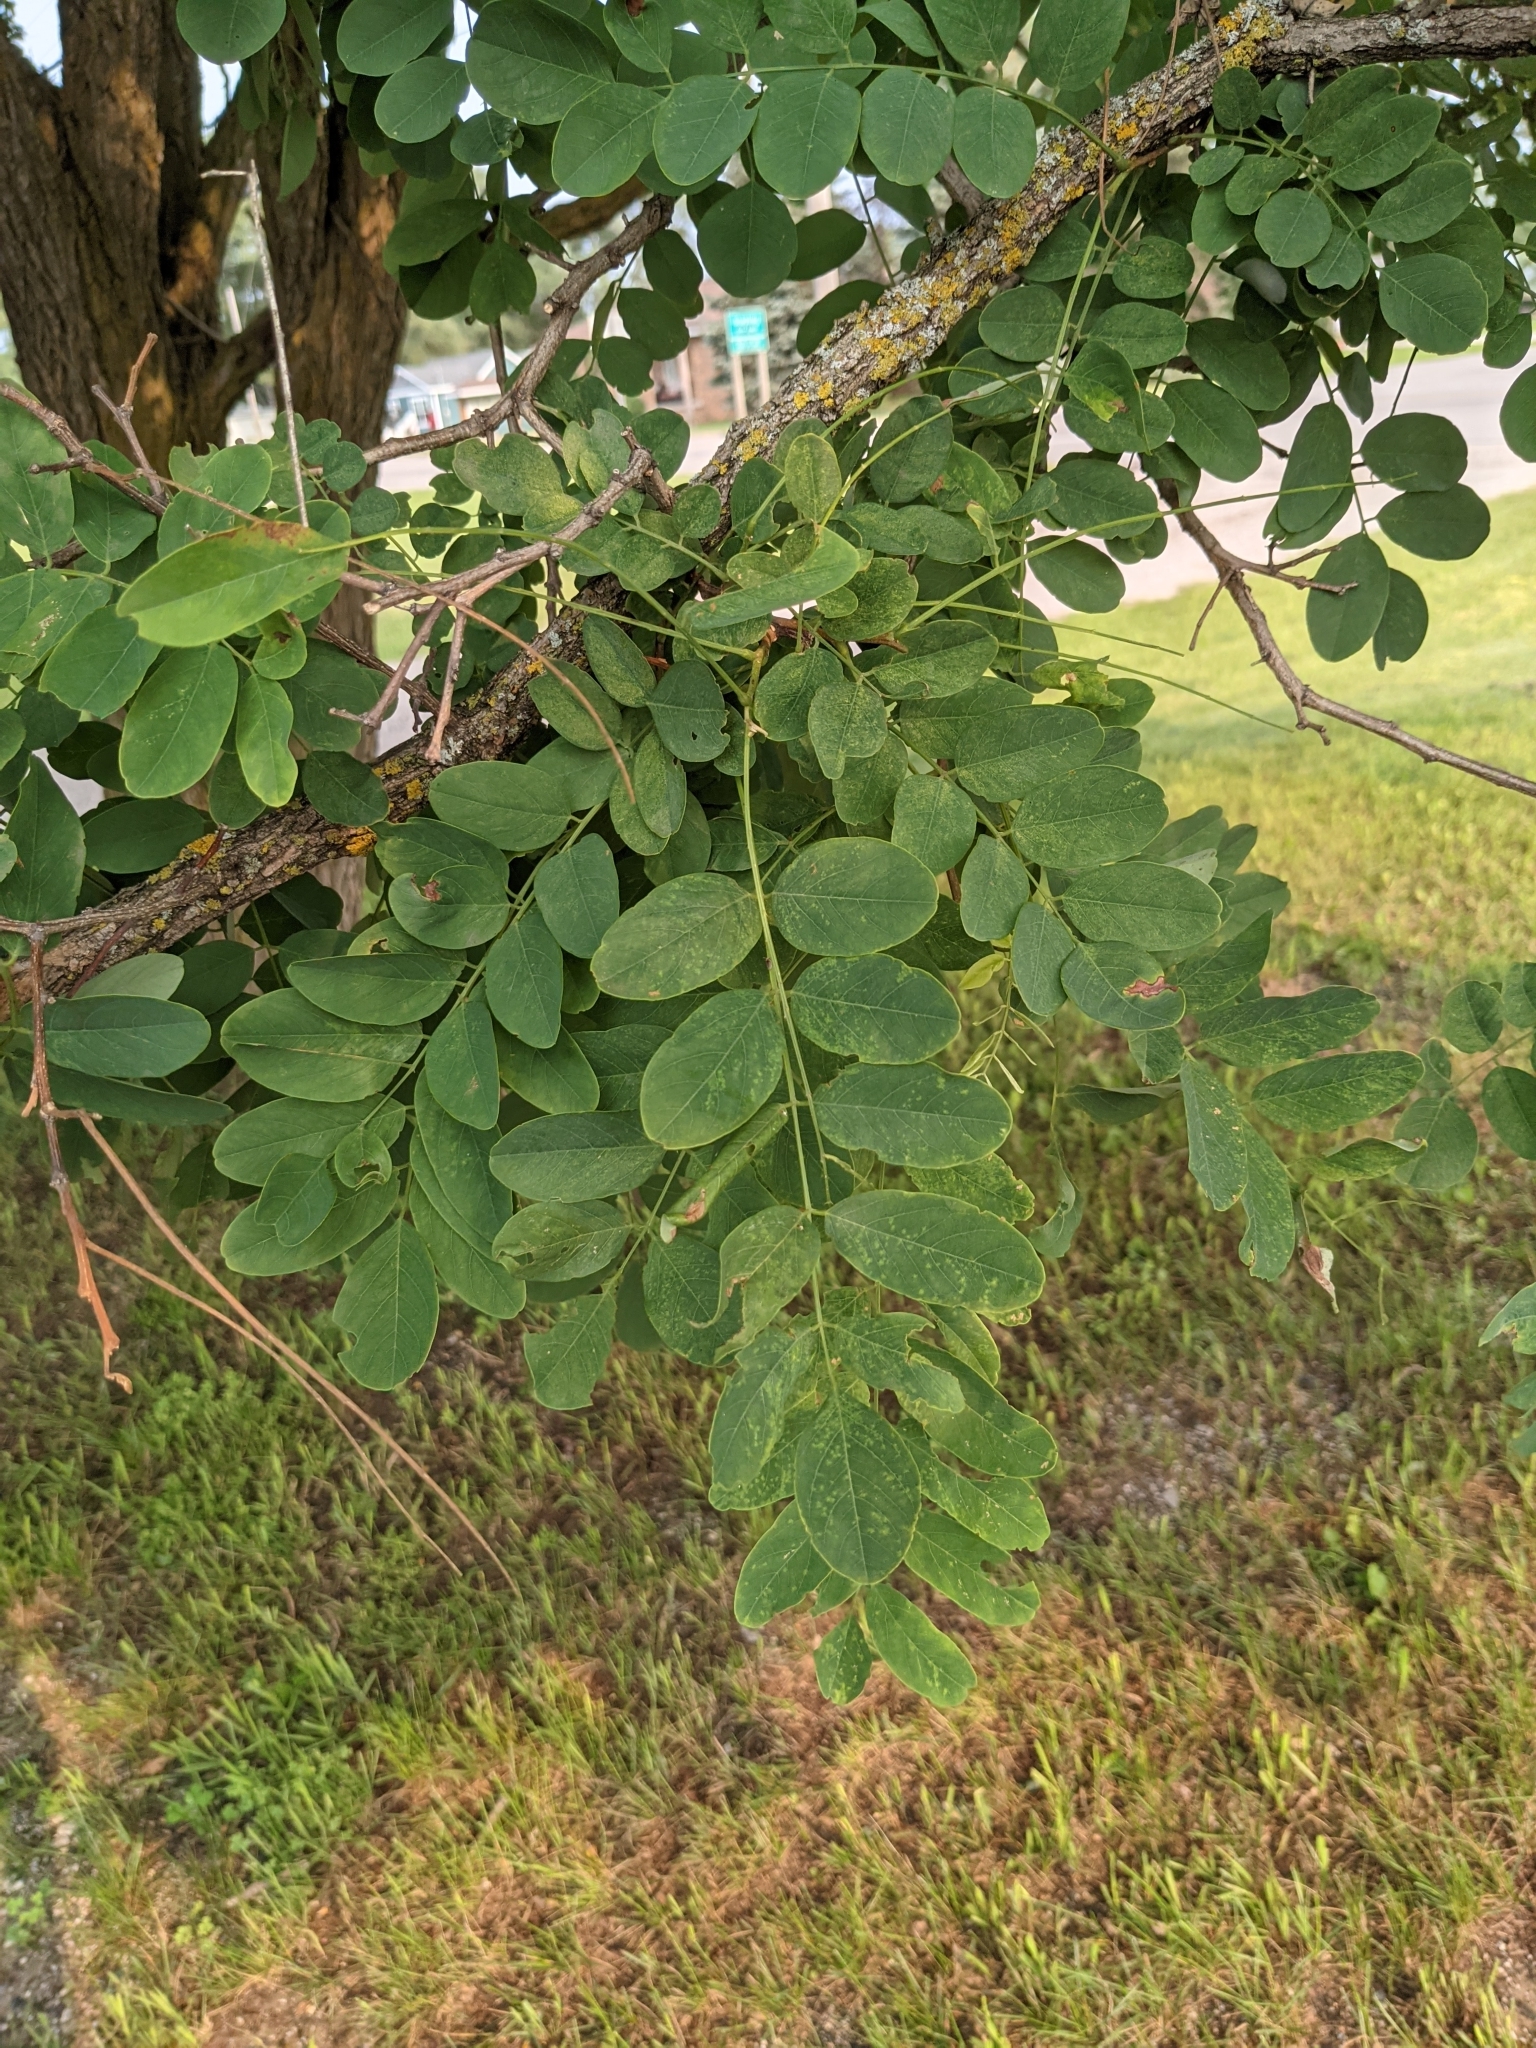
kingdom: Plantae
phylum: Tracheophyta
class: Magnoliopsida
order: Fabales
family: Fabaceae
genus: Robinia
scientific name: Robinia pseudoacacia
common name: Black locust
